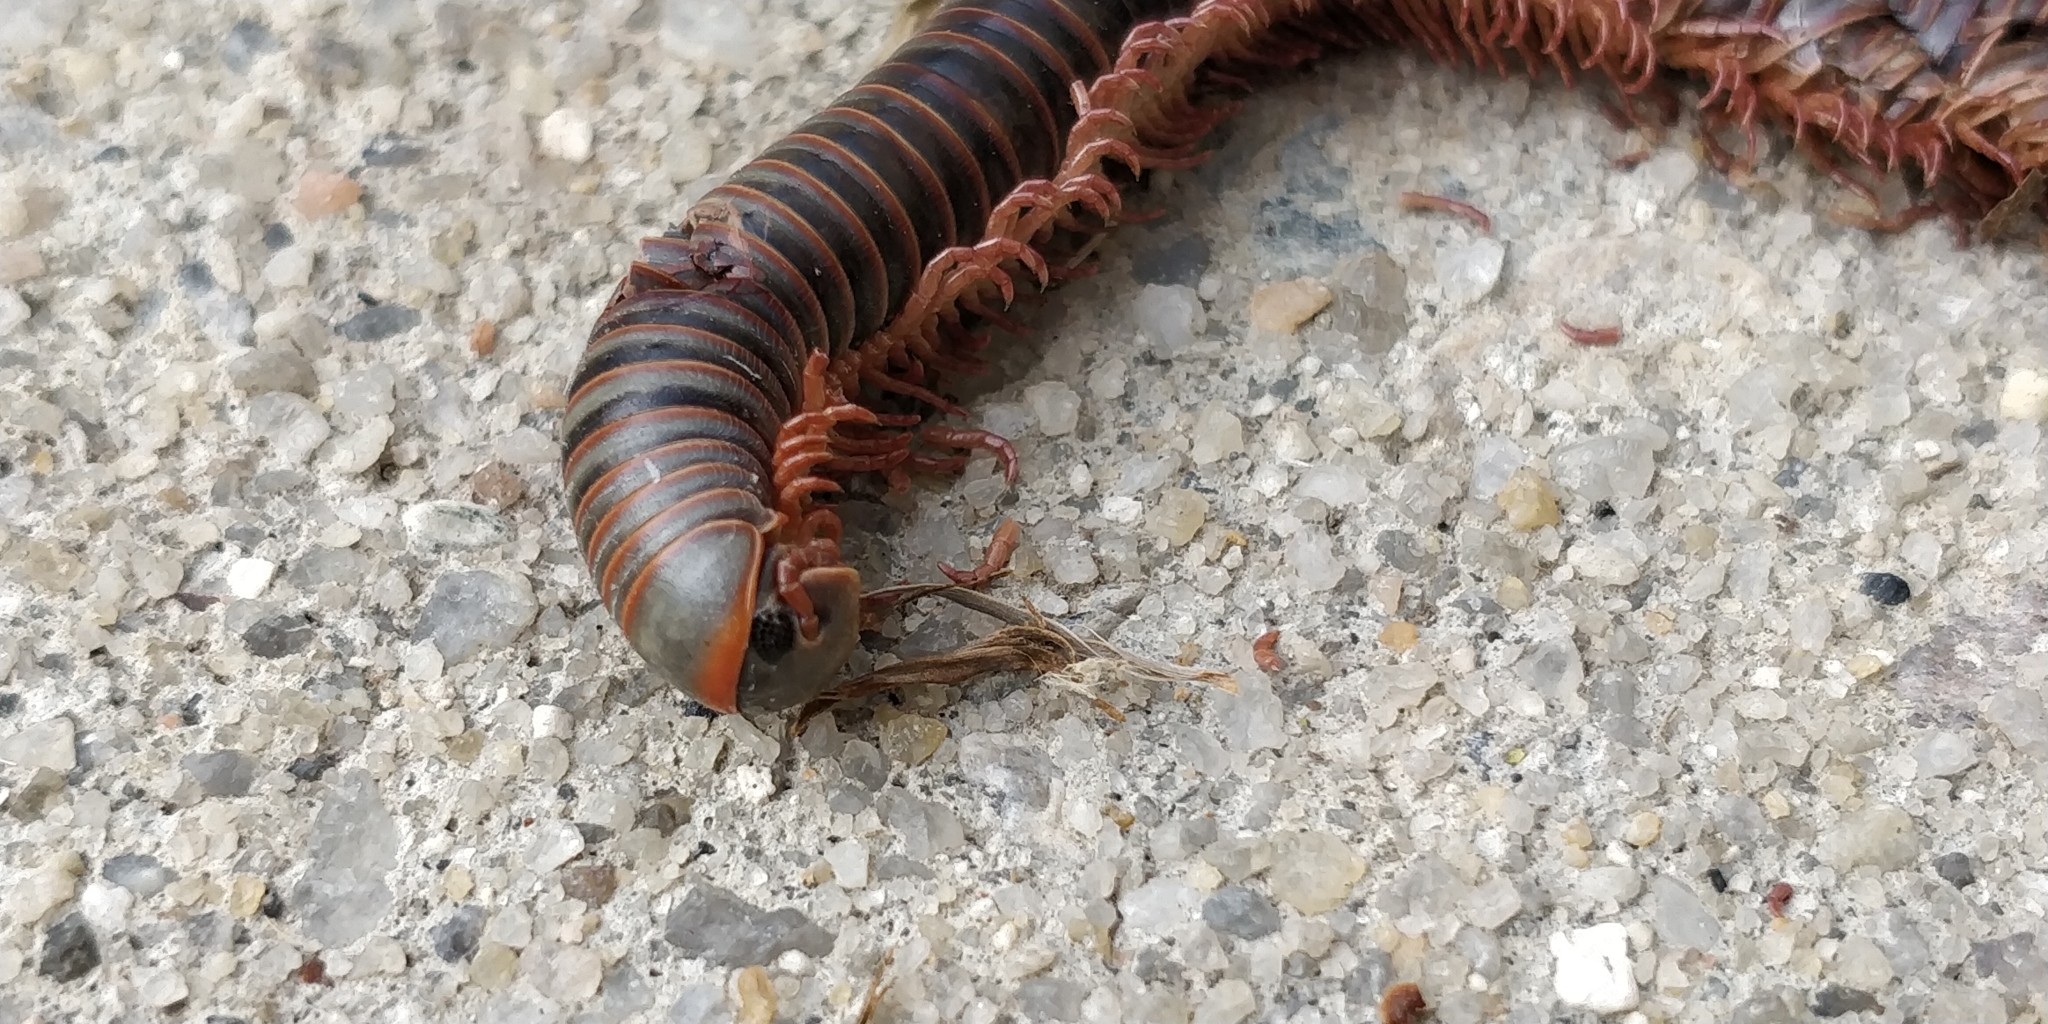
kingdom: Animalia
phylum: Arthropoda
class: Diplopoda
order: Spirobolida
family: Spirobolidae
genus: Narceus
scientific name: Narceus
